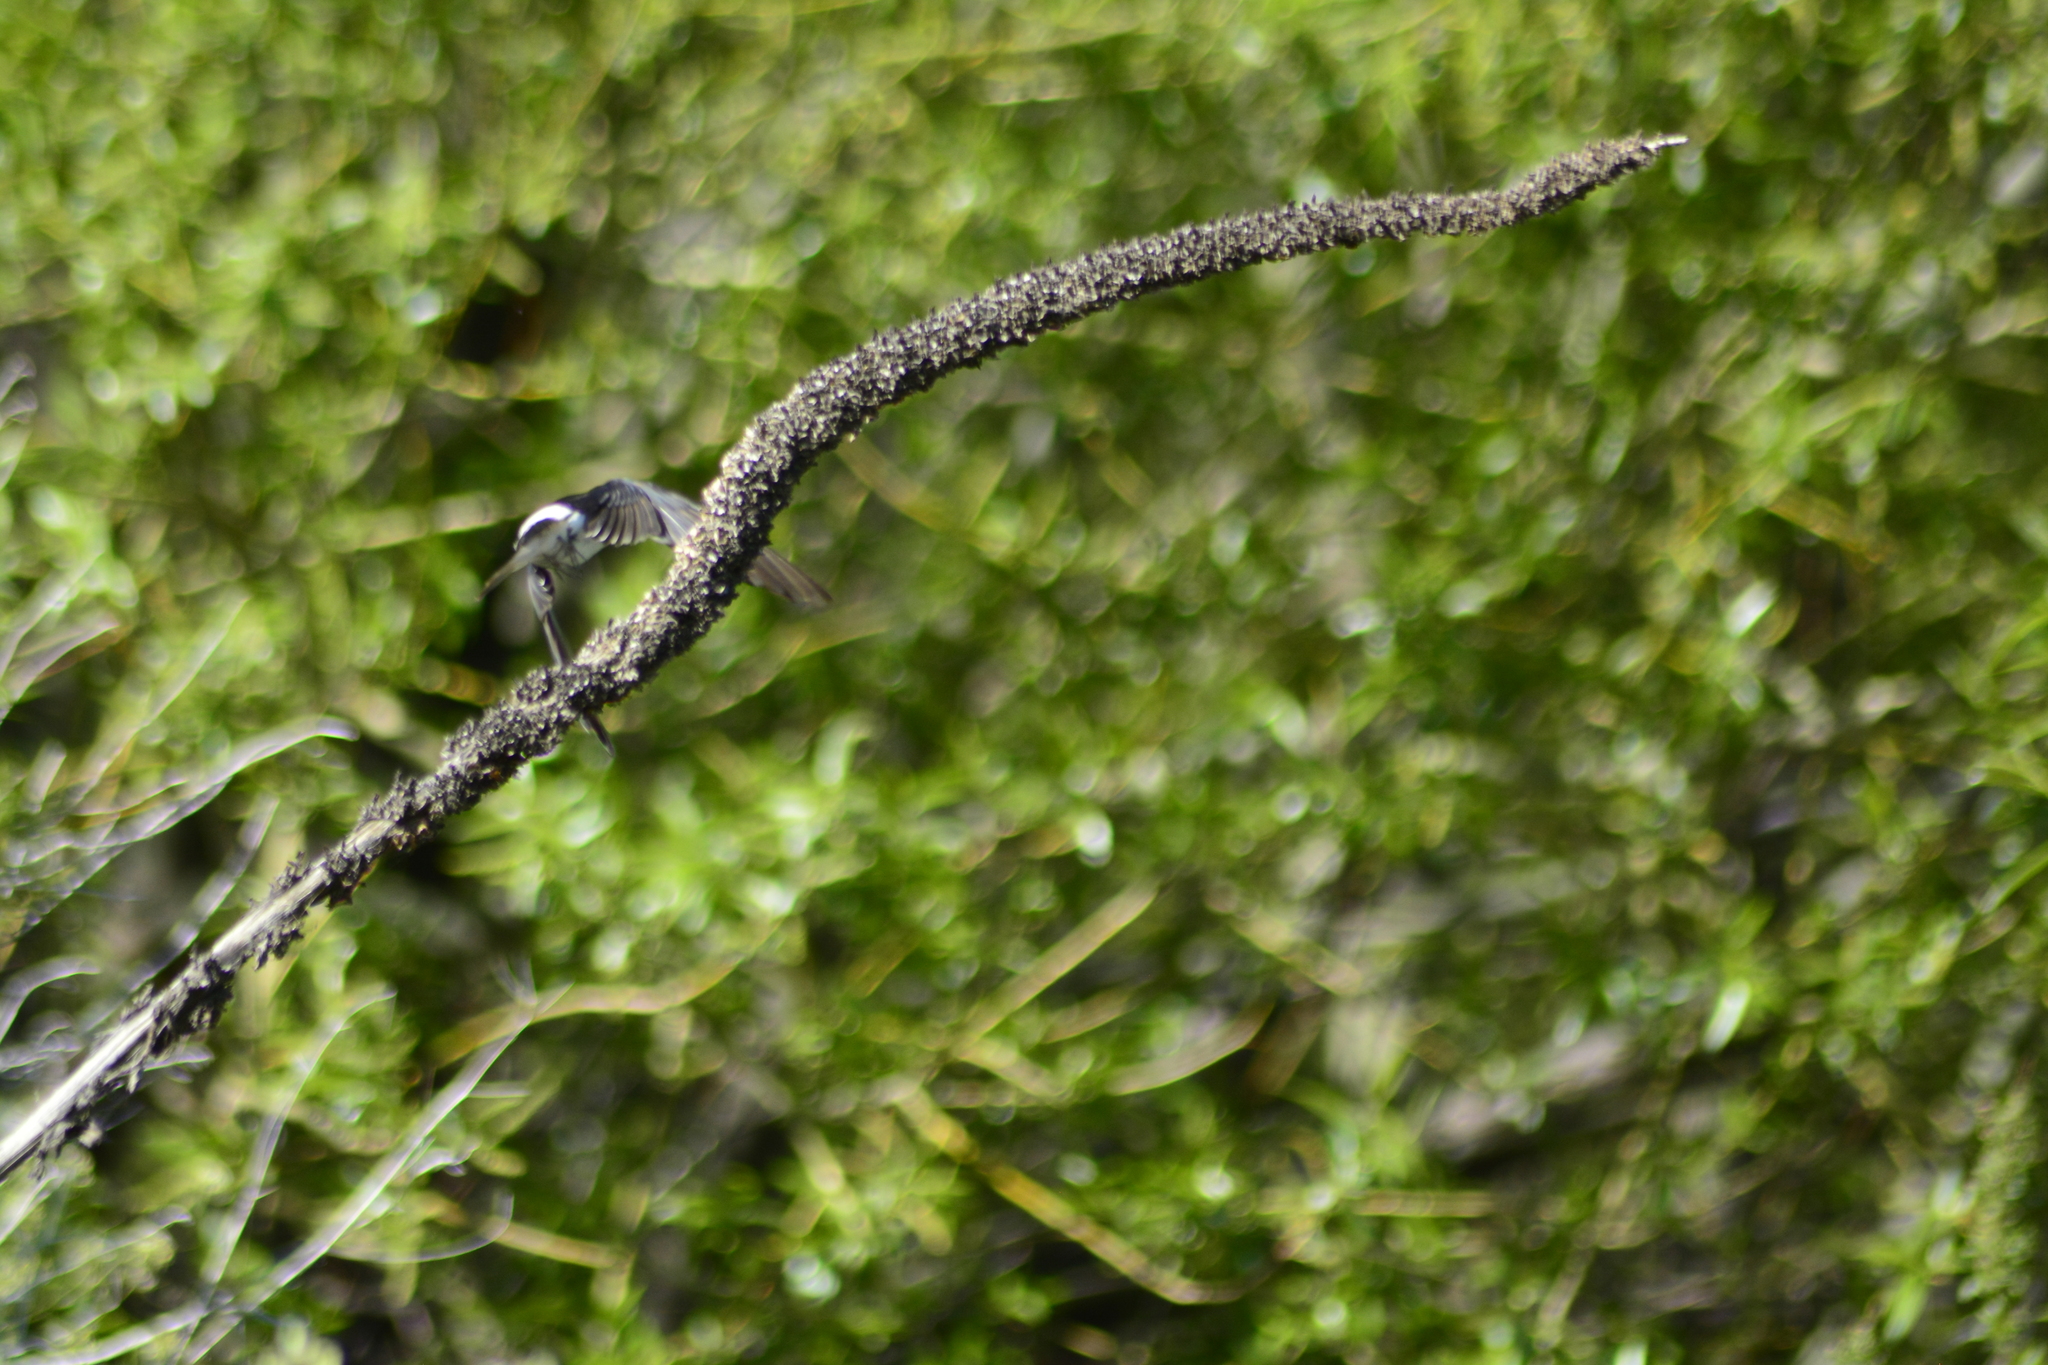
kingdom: Animalia
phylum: Chordata
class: Aves
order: Passeriformes
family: Hirundinidae
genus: Tachycineta
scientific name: Tachycineta leucopyga
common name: Chilean swallow
